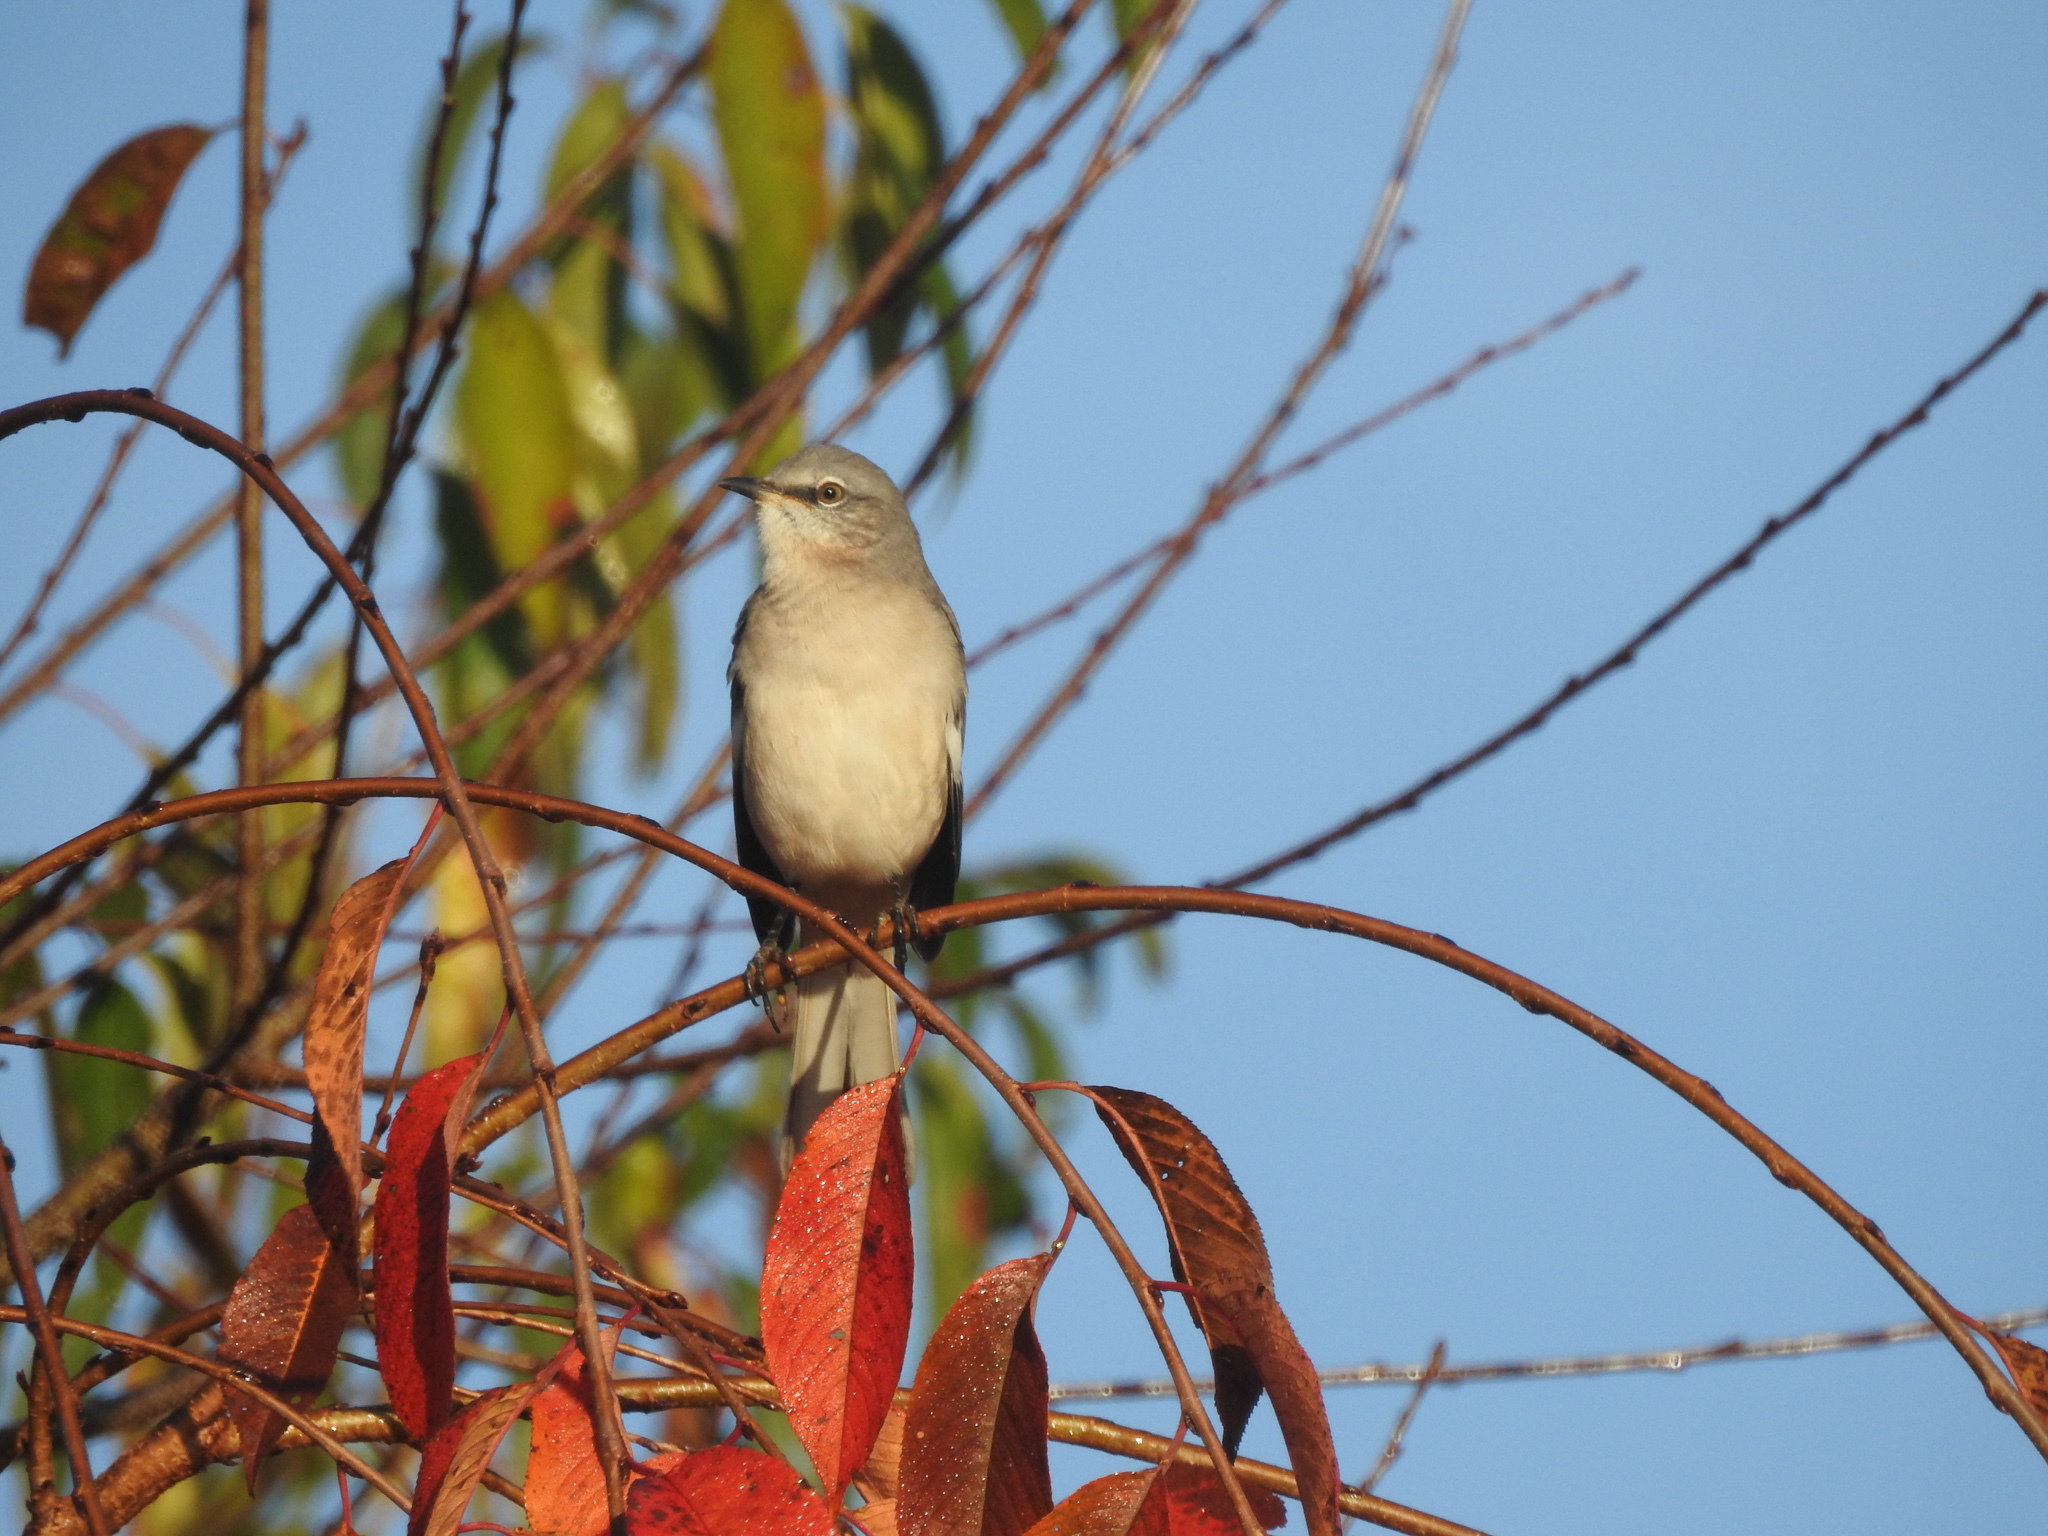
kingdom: Animalia
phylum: Chordata
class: Aves
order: Passeriformes
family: Mimidae
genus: Mimus
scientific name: Mimus polyglottos
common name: Northern mockingbird
